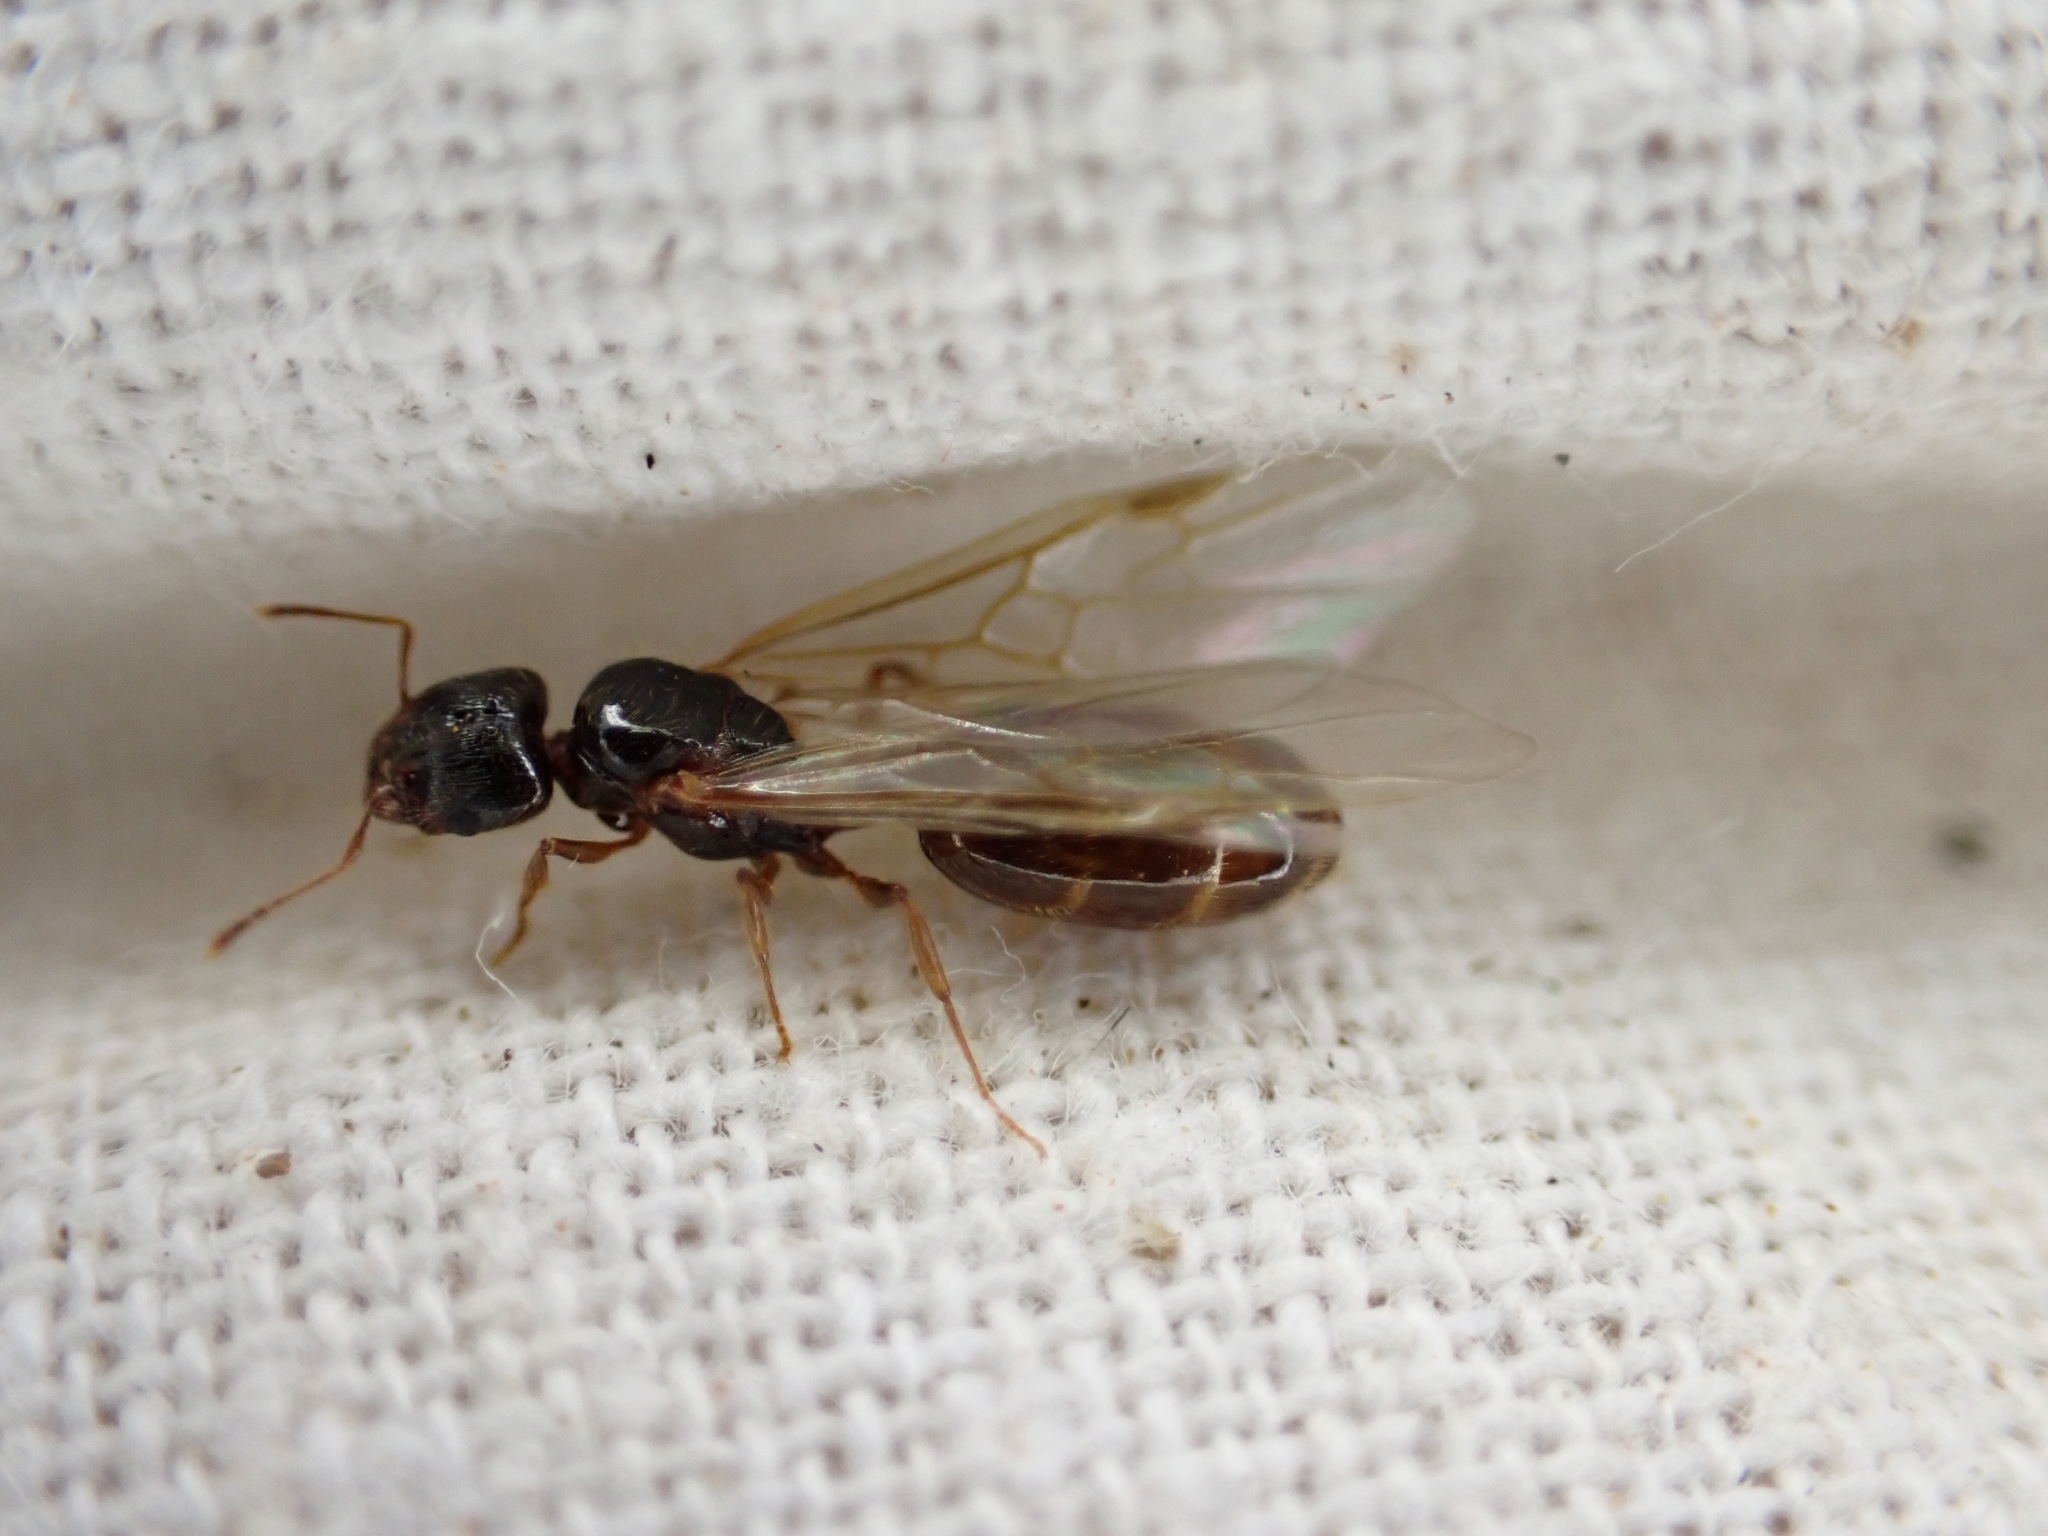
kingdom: Animalia
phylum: Arthropoda
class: Insecta
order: Hymenoptera
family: Formicidae
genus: Pheidole
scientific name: Pheidole pallidula
